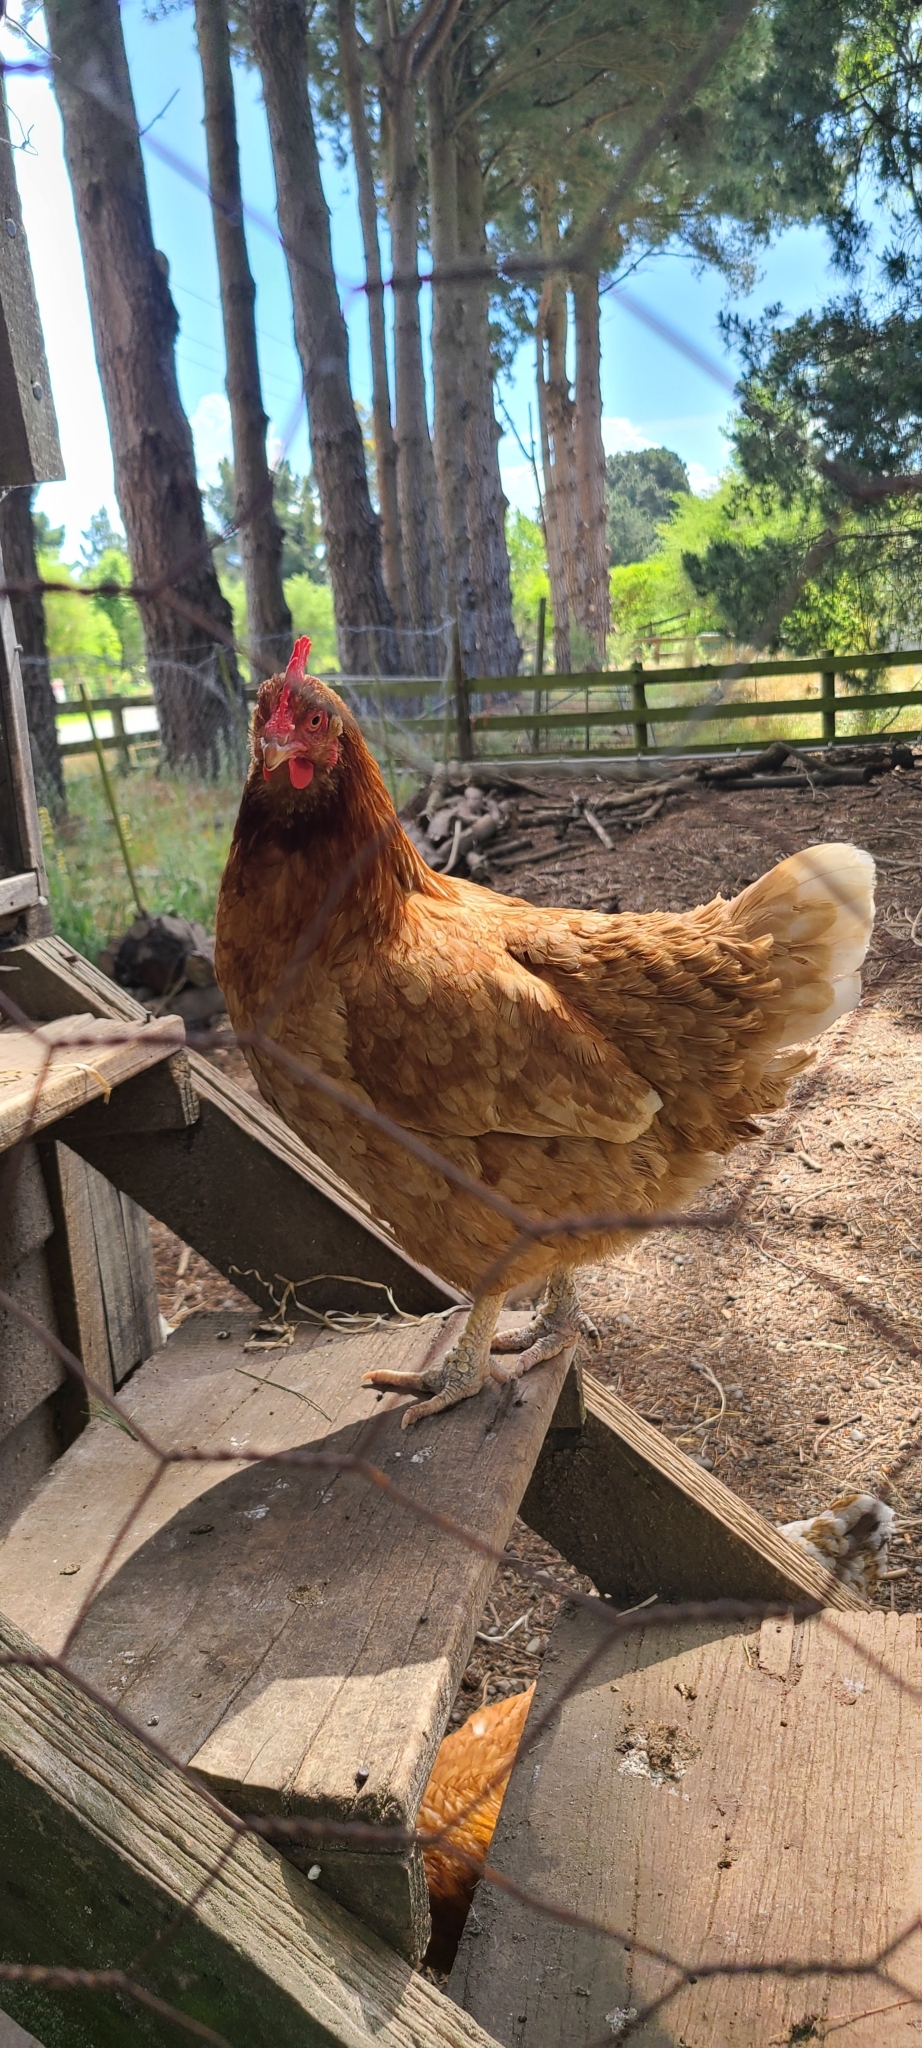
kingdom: Animalia
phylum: Chordata
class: Aves
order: Galliformes
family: Phasianidae
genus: Gallus
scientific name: Gallus gallus
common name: Red junglefowl
